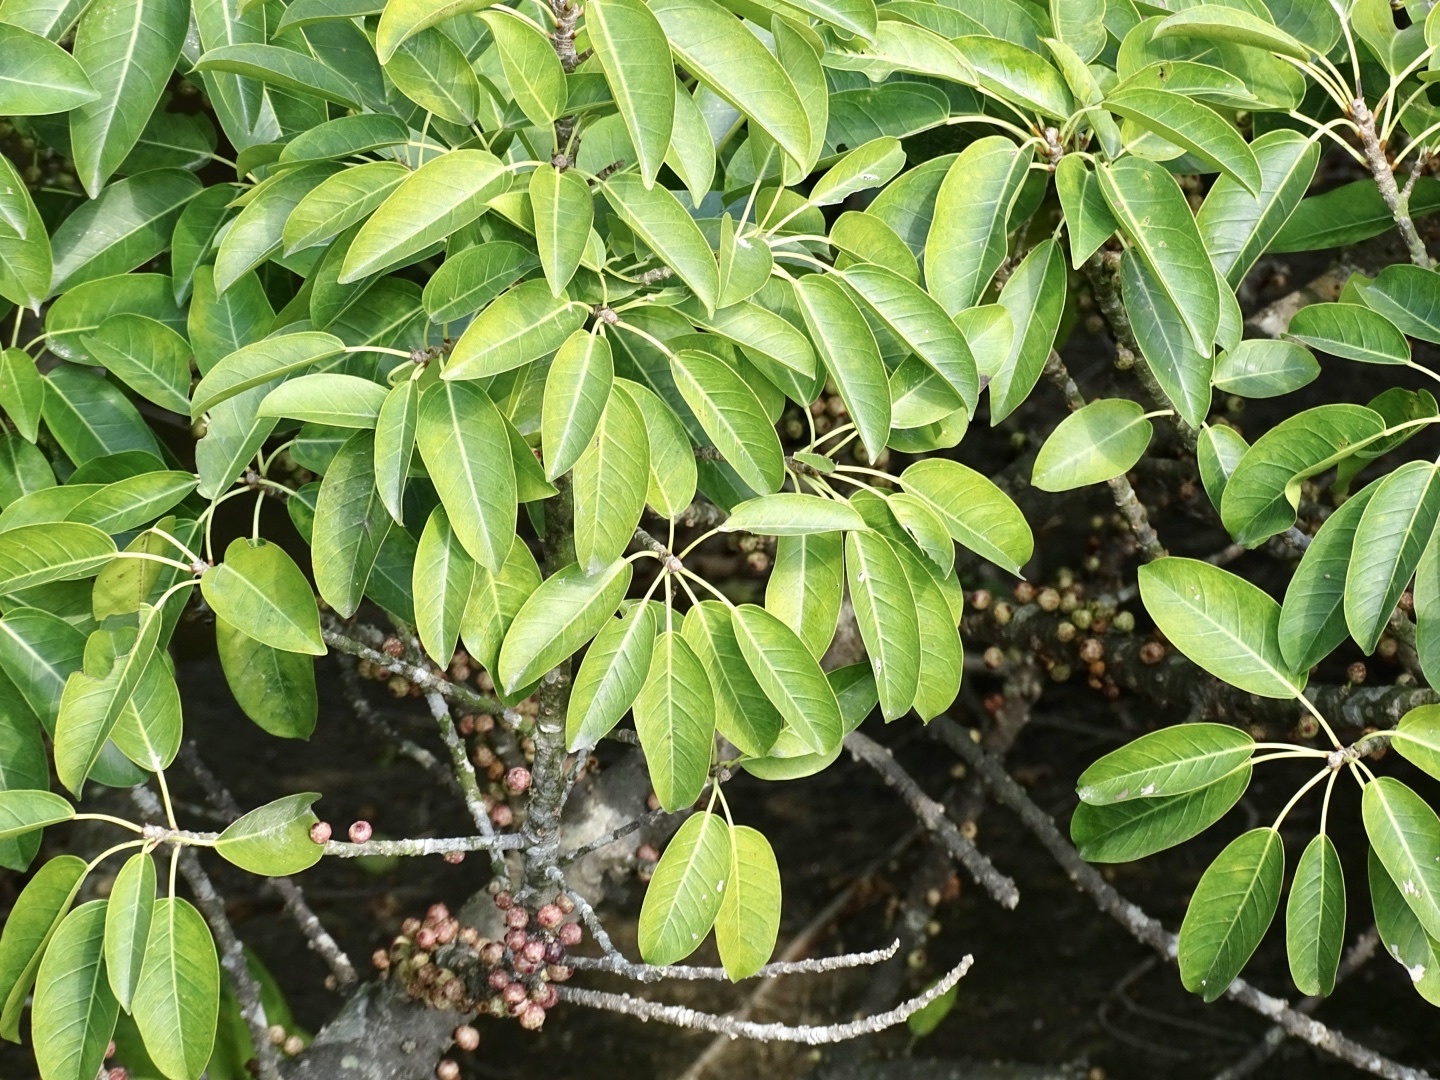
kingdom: Plantae
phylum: Tracheophyta
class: Magnoliopsida
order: Rosales
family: Moraceae
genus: Ficus
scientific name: Ficus subpisocarpa
